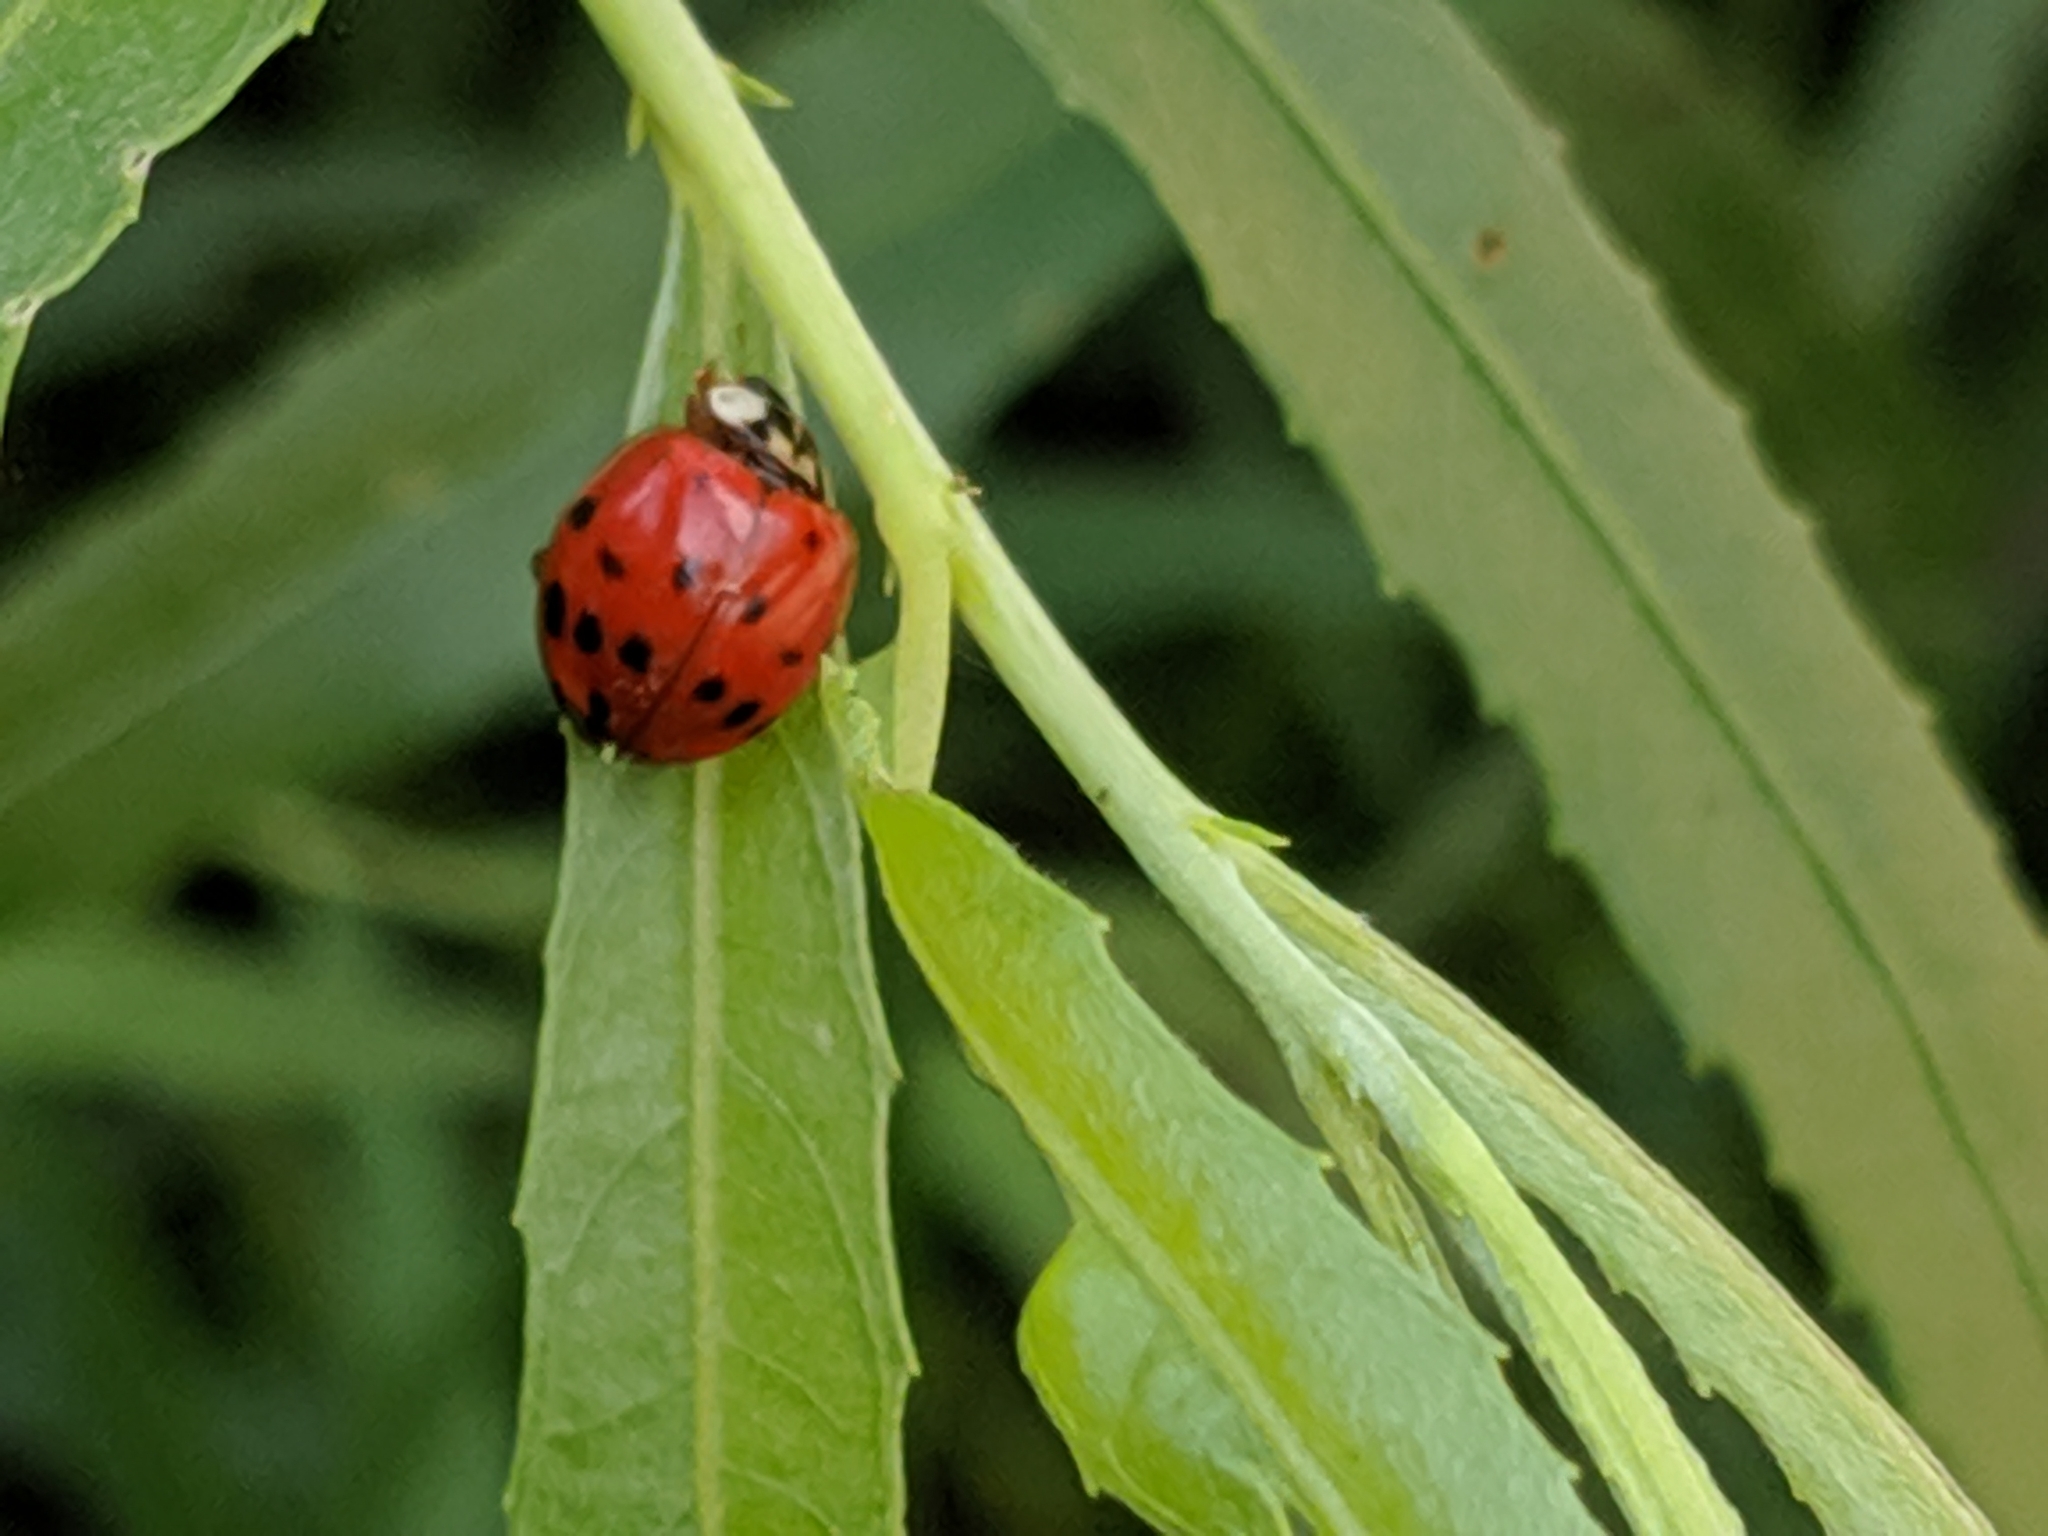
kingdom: Animalia
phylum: Arthropoda
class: Insecta
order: Coleoptera
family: Coccinellidae
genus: Harmonia
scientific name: Harmonia axyridis
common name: Harlequin ladybird
